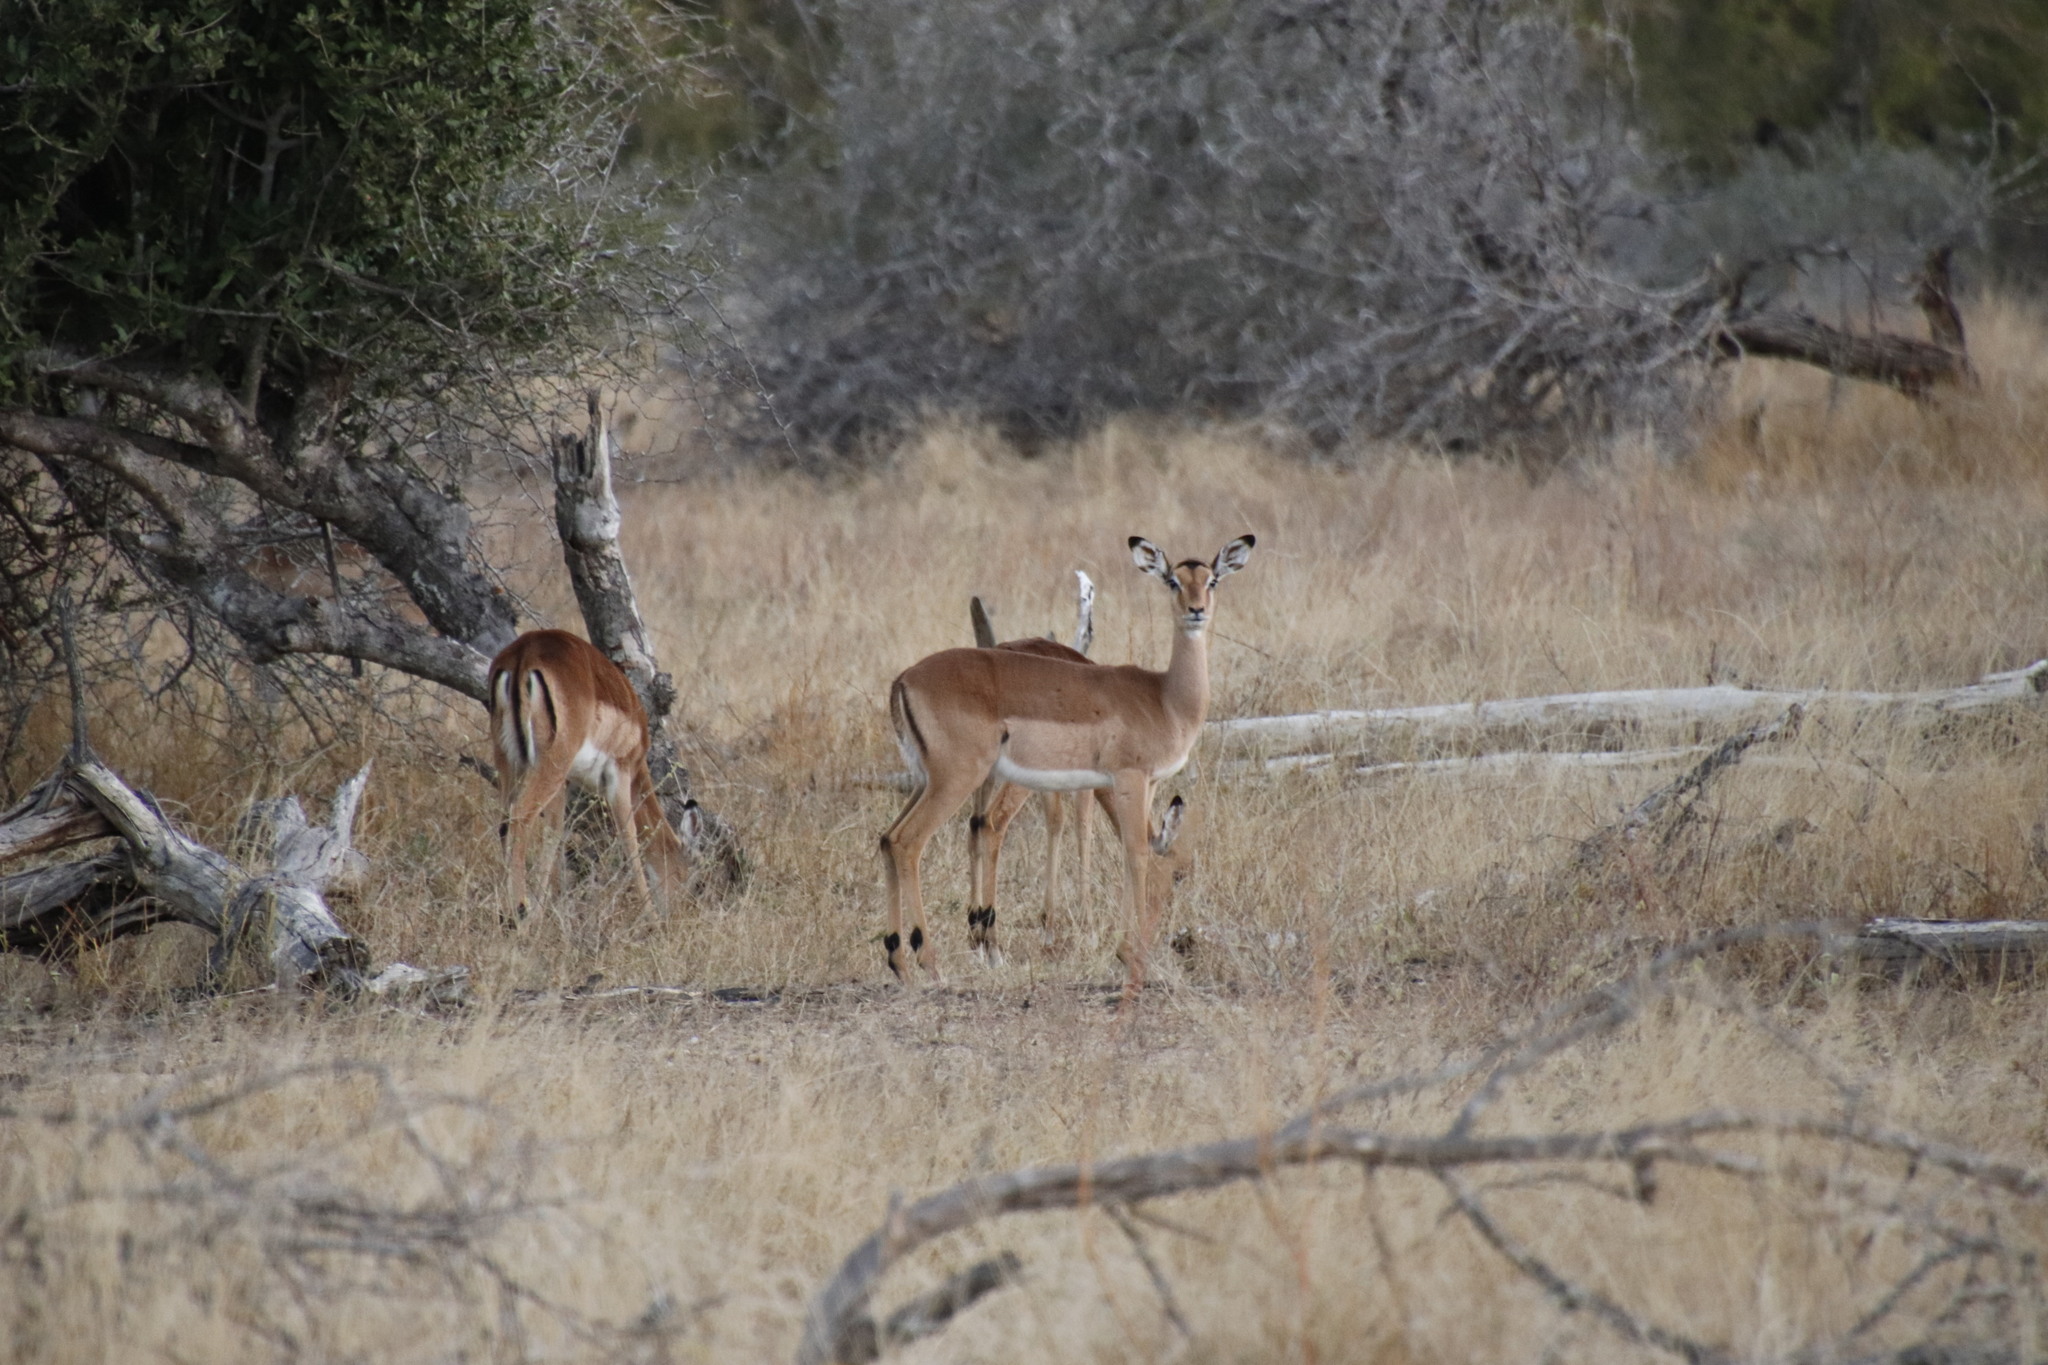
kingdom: Animalia
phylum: Chordata
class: Mammalia
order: Artiodactyla
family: Bovidae
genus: Aepyceros
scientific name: Aepyceros melampus
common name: Impala
